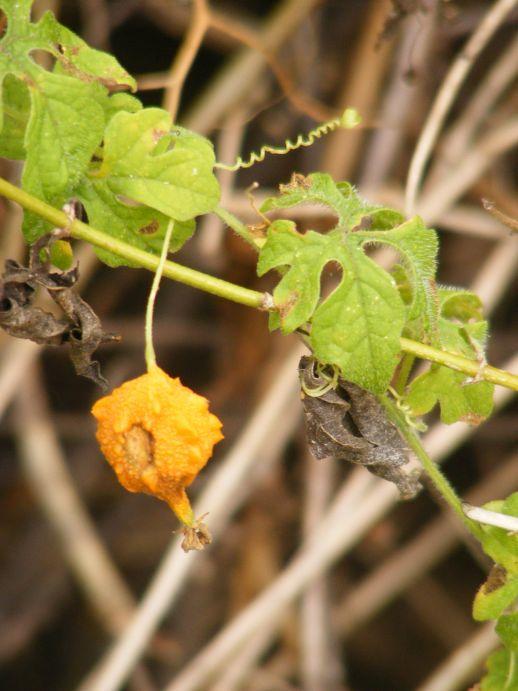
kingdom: Plantae
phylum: Tracheophyta
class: Magnoliopsida
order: Cucurbitales
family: Cucurbitaceae
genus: Momordica
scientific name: Momordica charantia
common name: Balsampear
